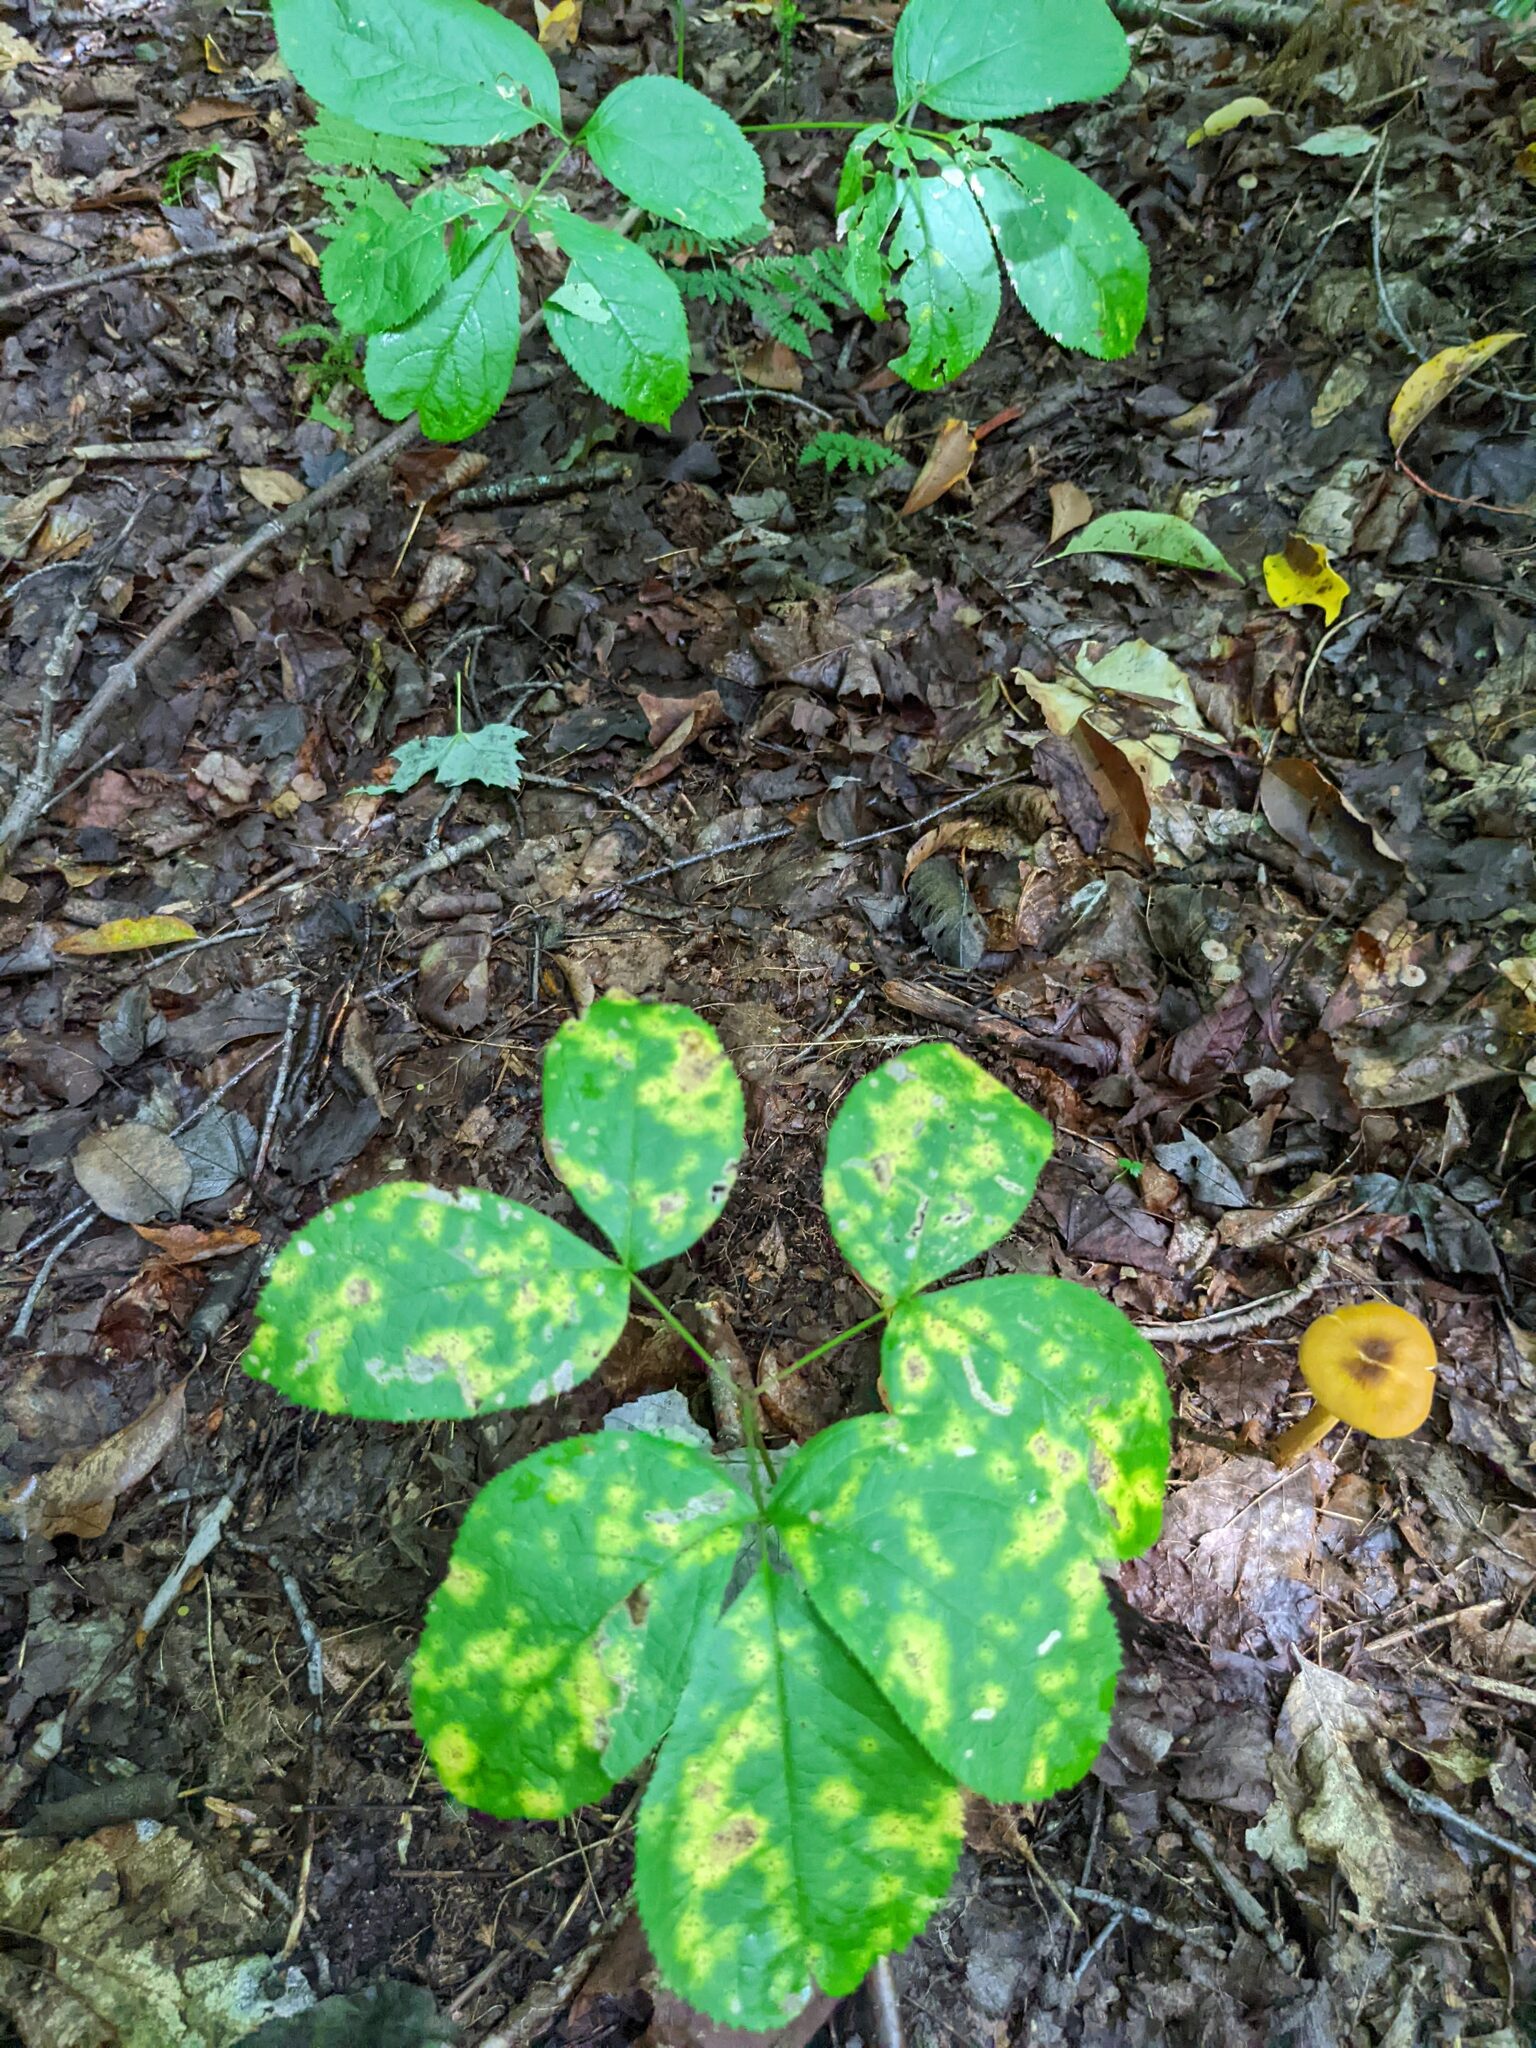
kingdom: Plantae
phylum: Tracheophyta
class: Magnoliopsida
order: Apiales
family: Araliaceae
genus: Aralia
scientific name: Aralia nudicaulis
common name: Wild sarsaparilla
